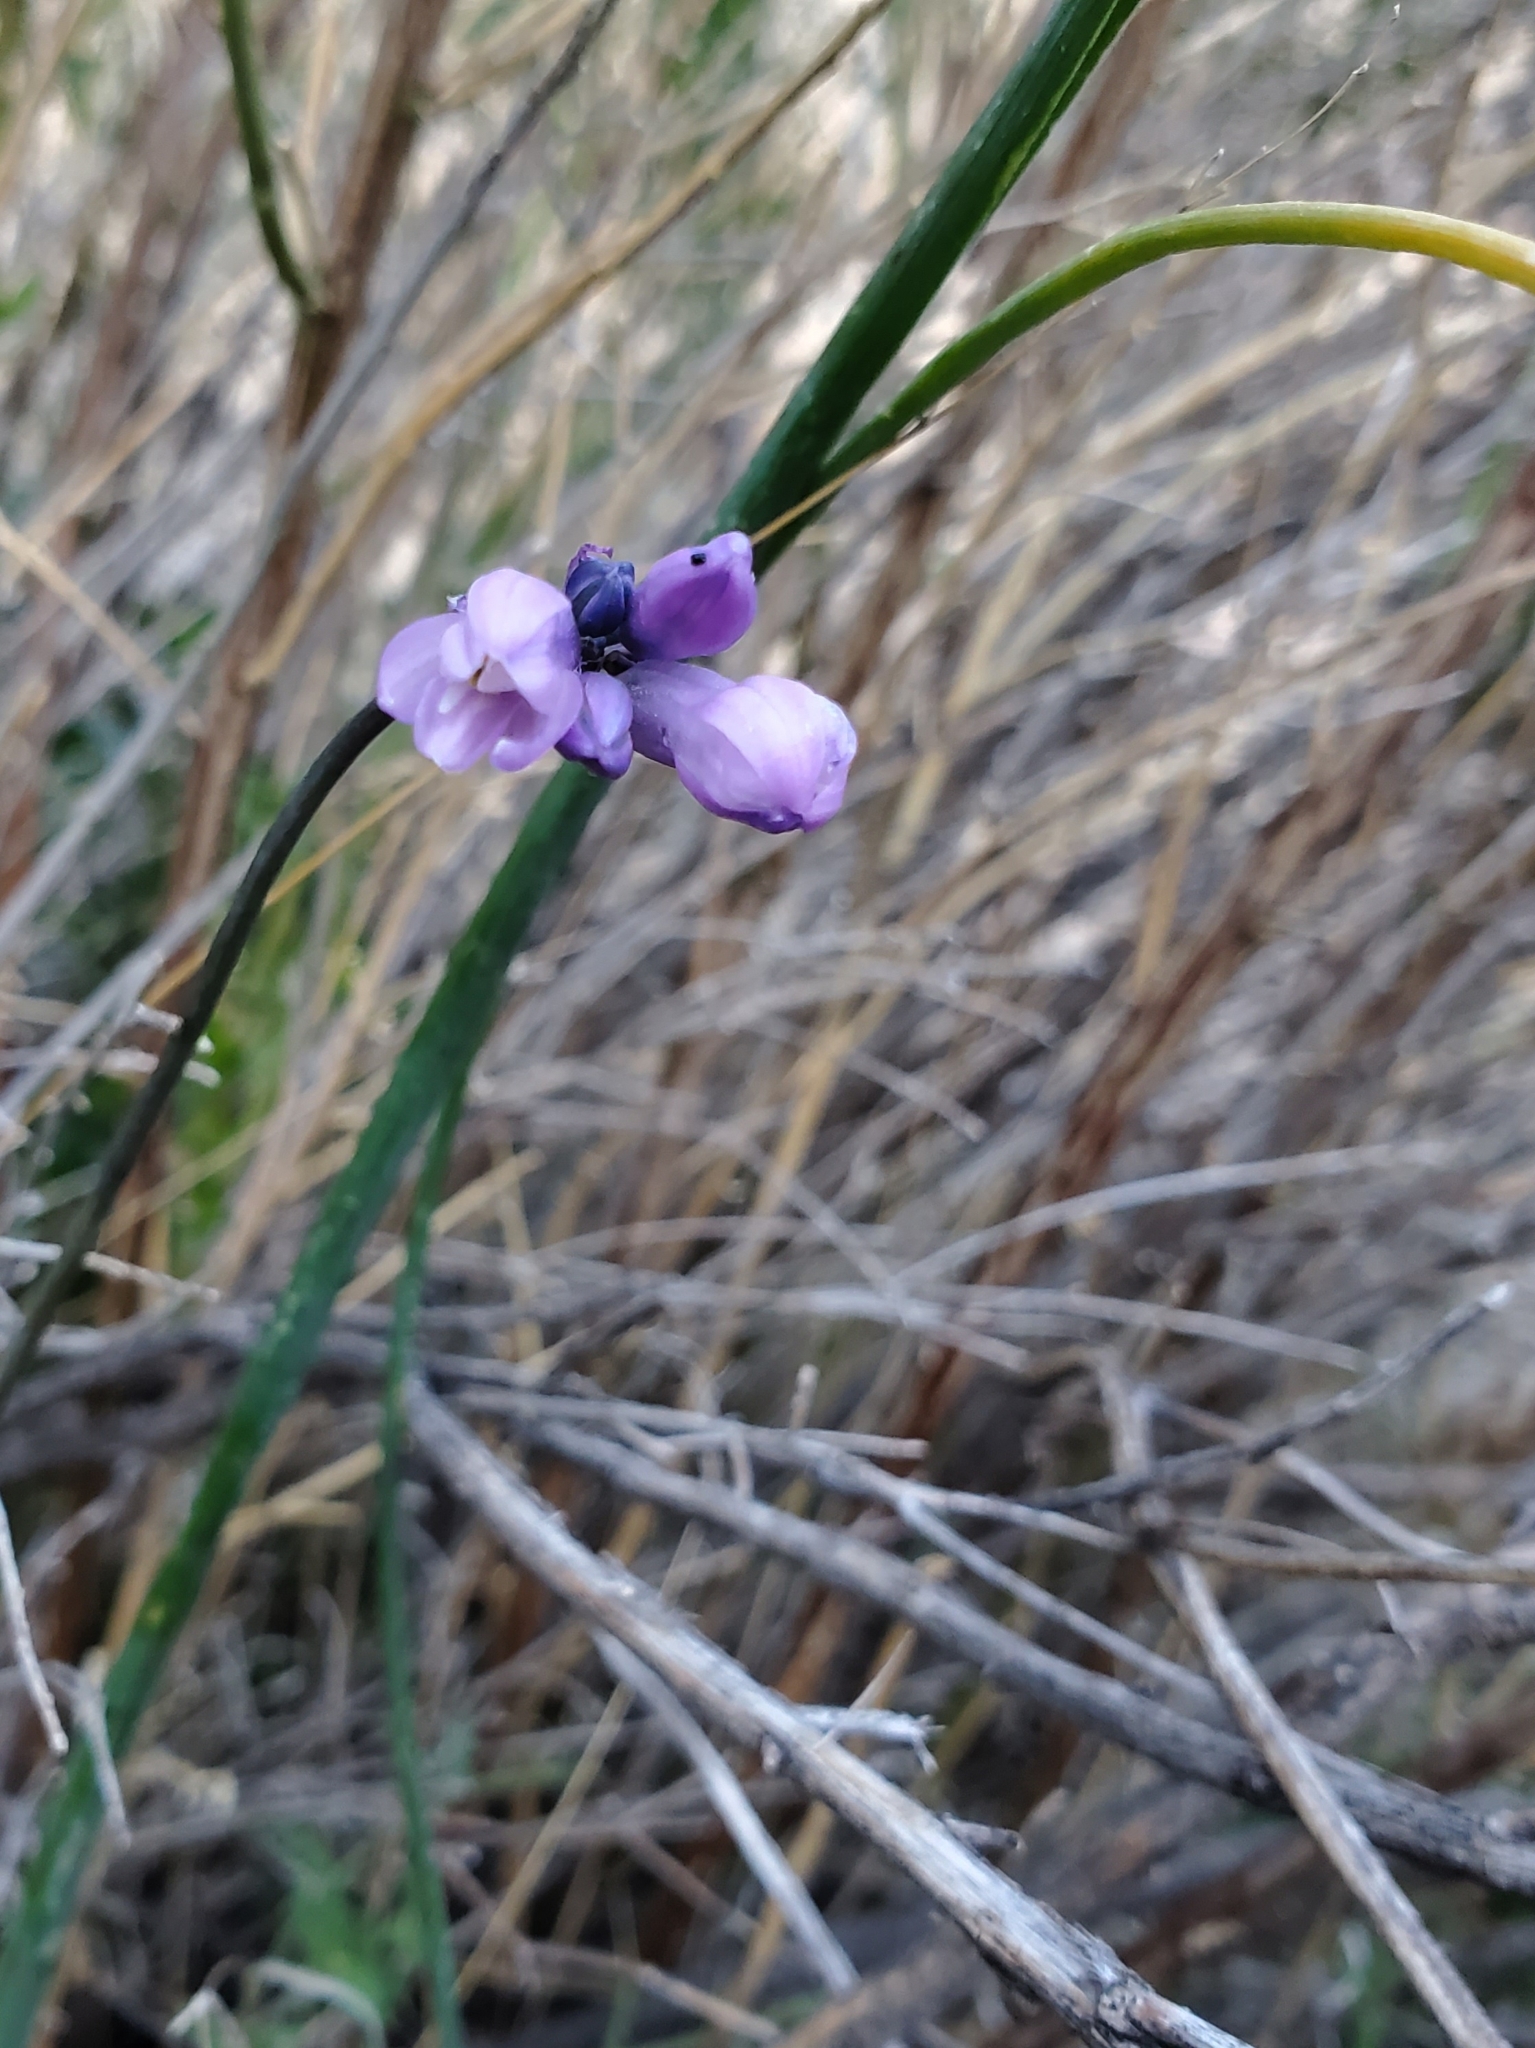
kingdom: Plantae
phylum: Tracheophyta
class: Liliopsida
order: Asparagales
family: Asparagaceae
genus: Dipterostemon
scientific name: Dipterostemon capitatus
